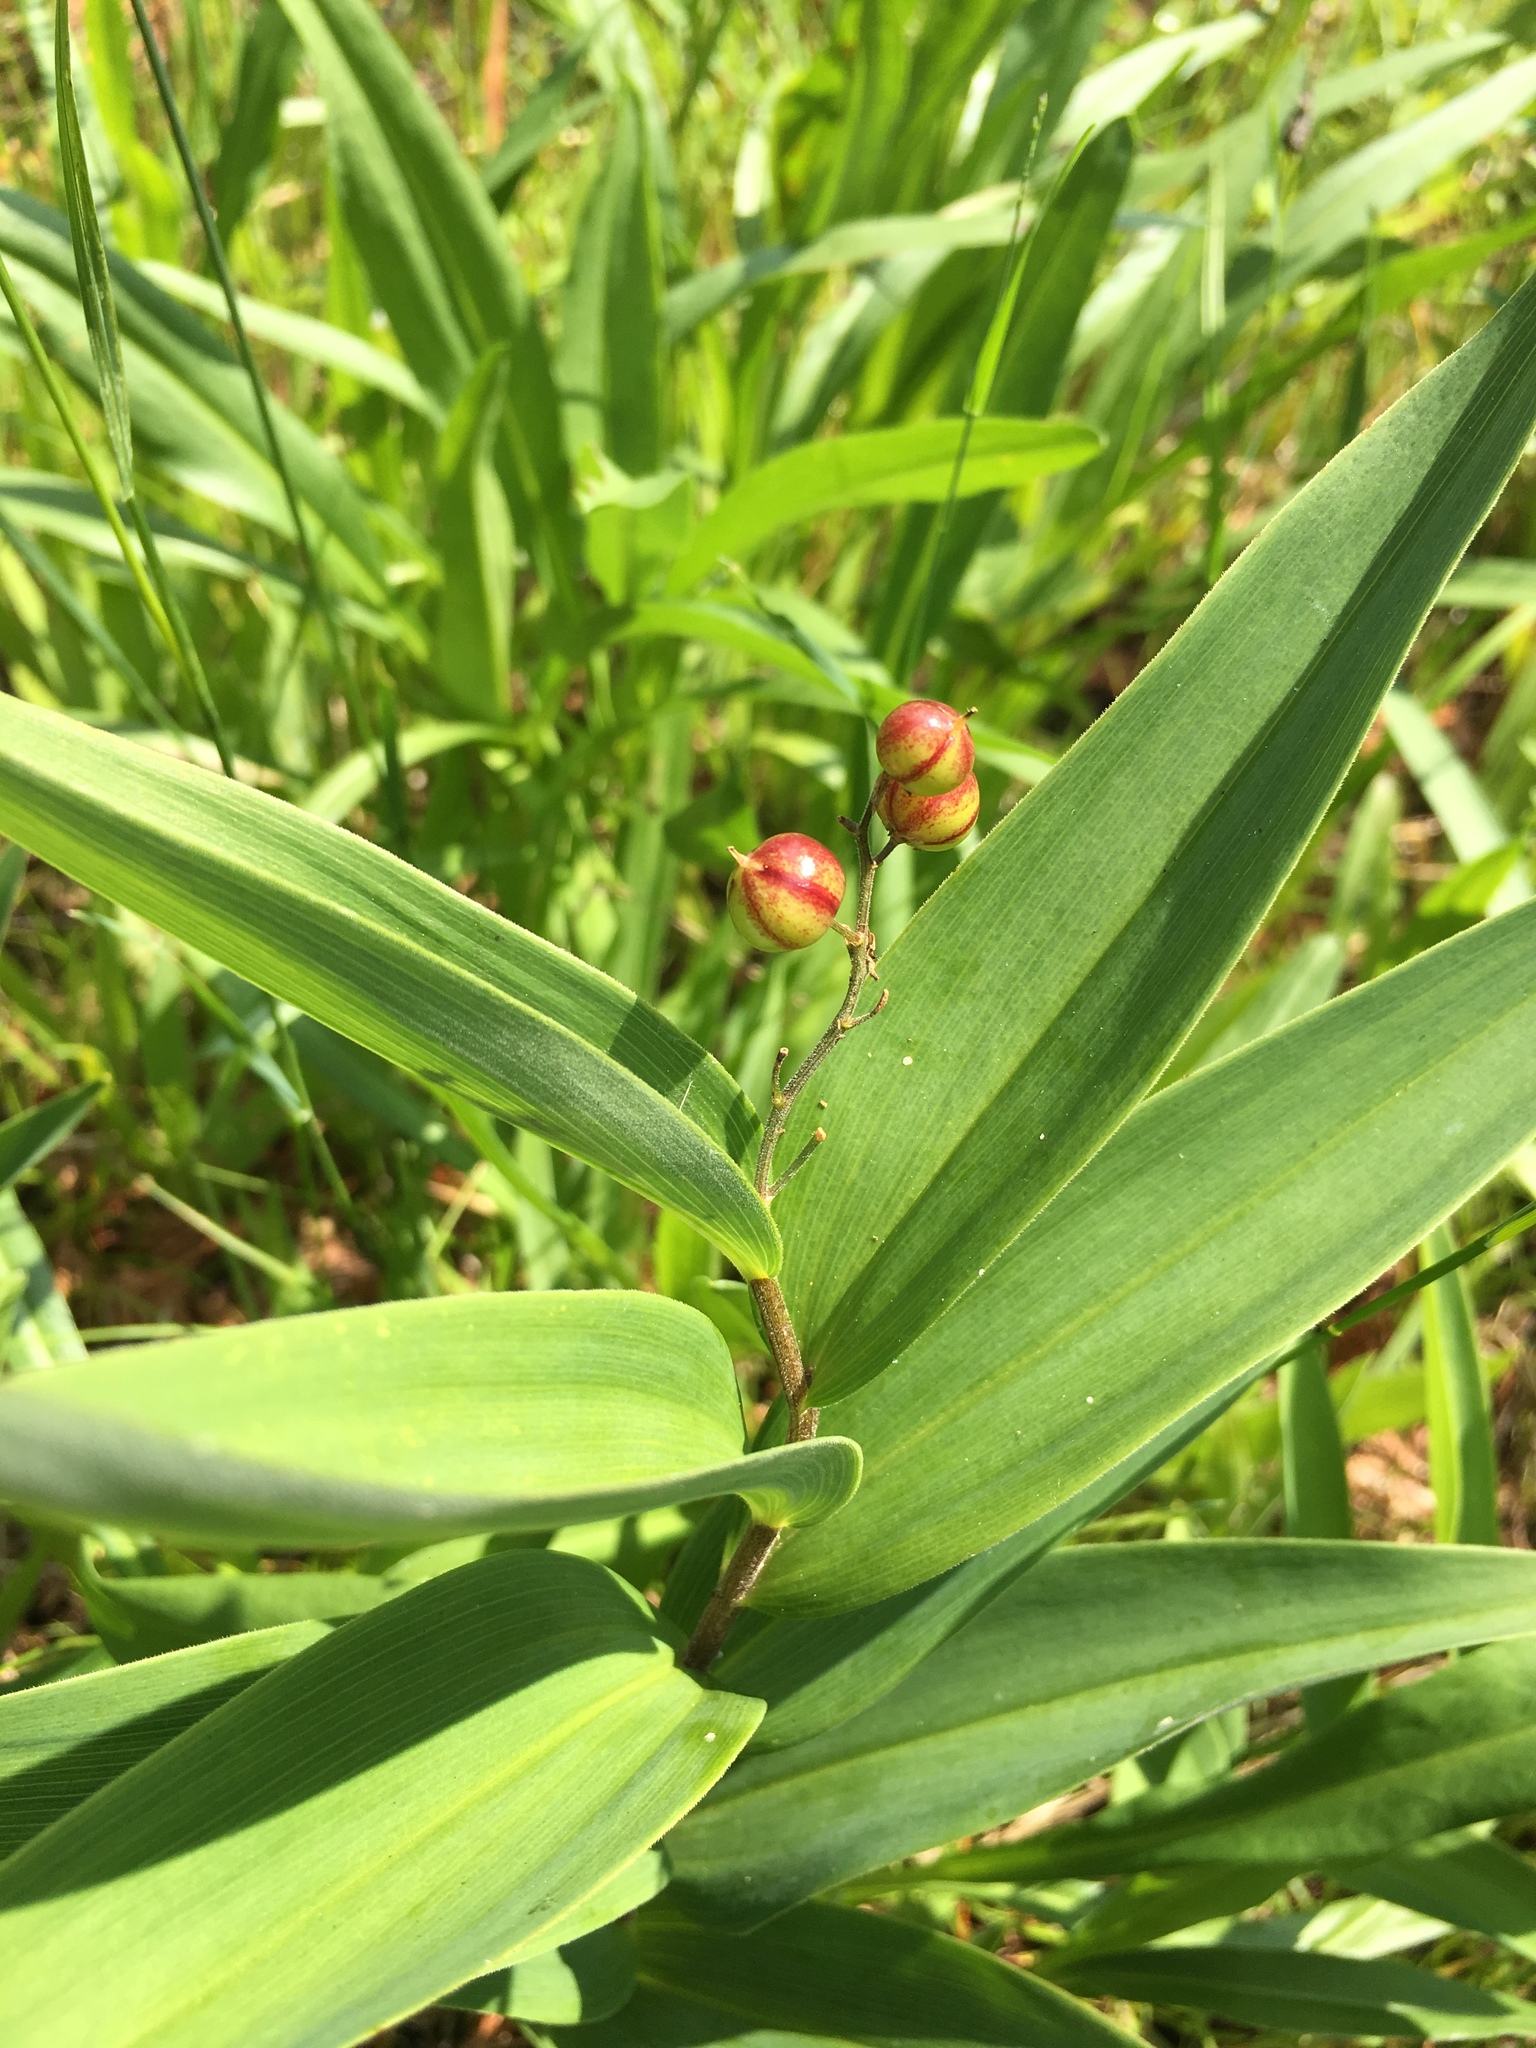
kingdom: Plantae
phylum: Tracheophyta
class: Liliopsida
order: Asparagales
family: Asparagaceae
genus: Maianthemum
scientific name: Maianthemum stellatum
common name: Little false solomon's seal
